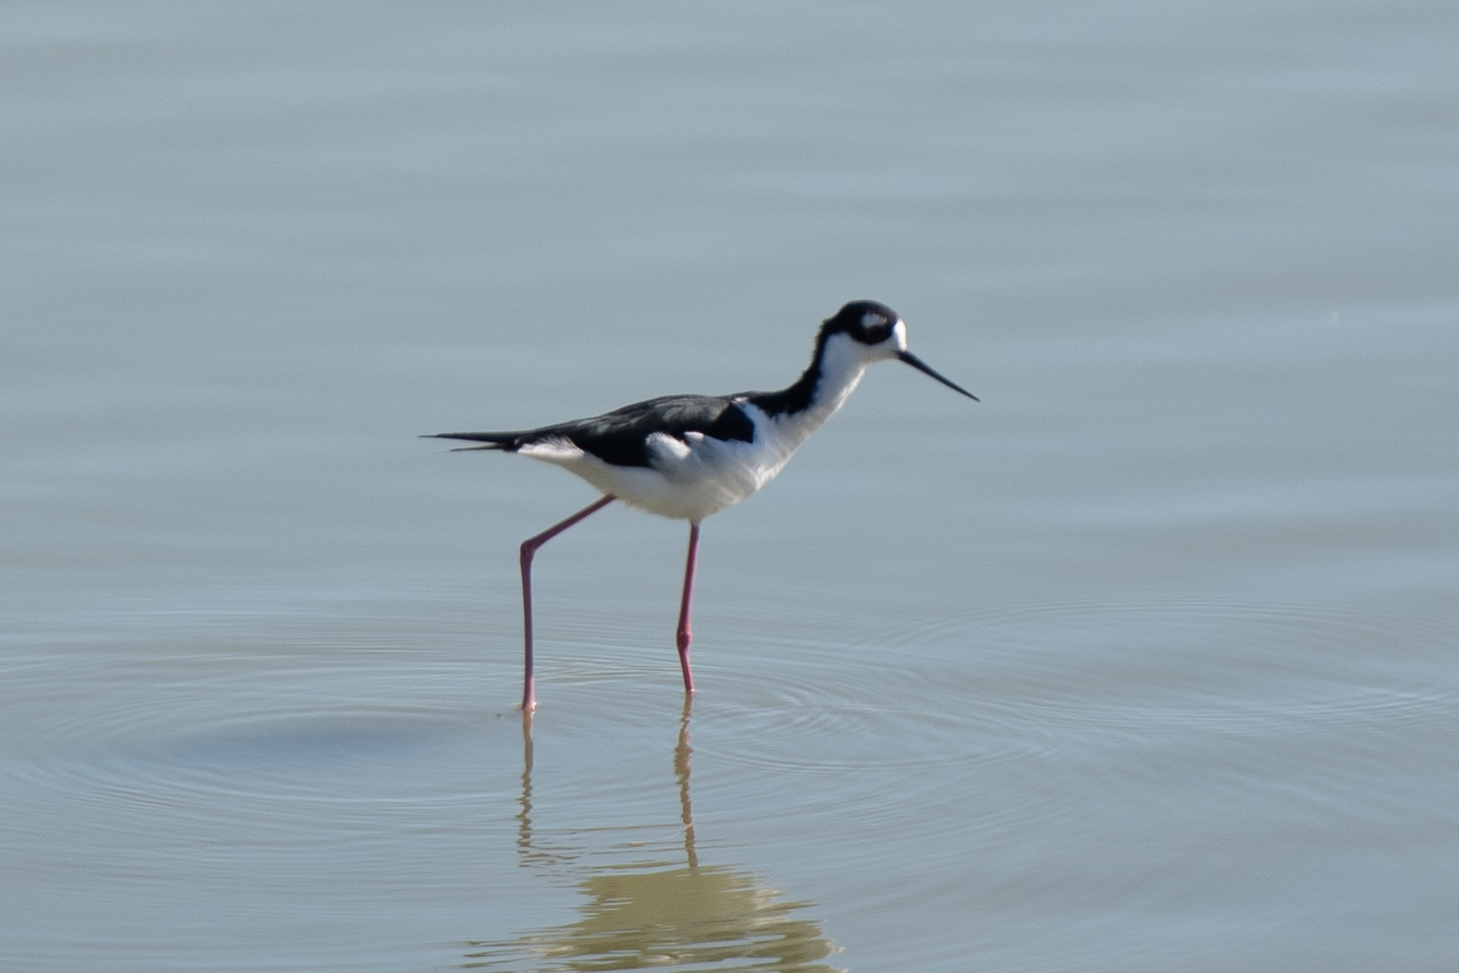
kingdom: Animalia
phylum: Chordata
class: Aves
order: Charadriiformes
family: Recurvirostridae
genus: Himantopus
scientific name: Himantopus mexicanus
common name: Black-necked stilt
